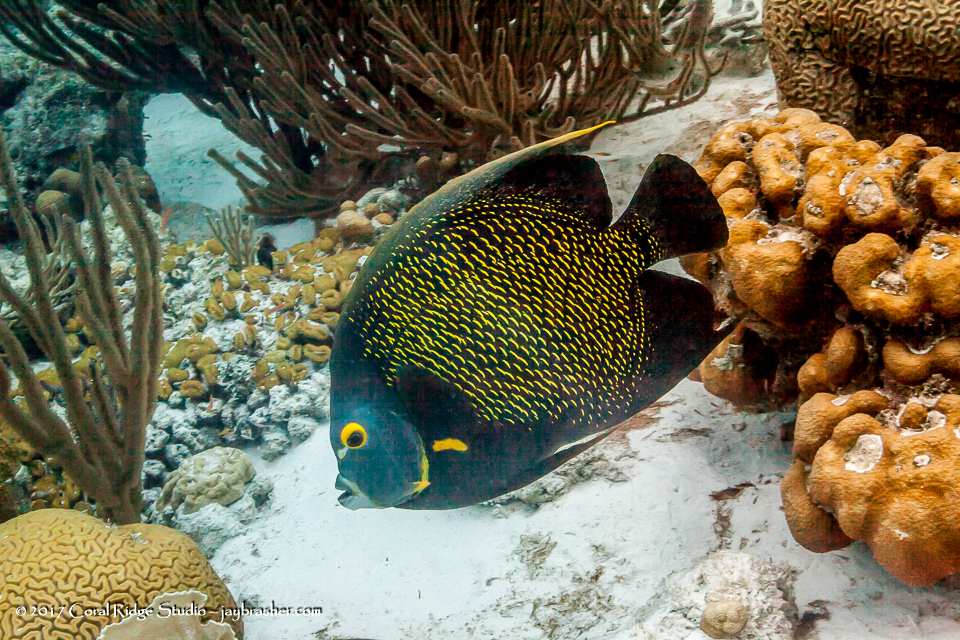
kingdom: Animalia
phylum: Chordata
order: Perciformes
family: Pomacanthidae
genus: Pomacanthus
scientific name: Pomacanthus paru
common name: French angelfish
